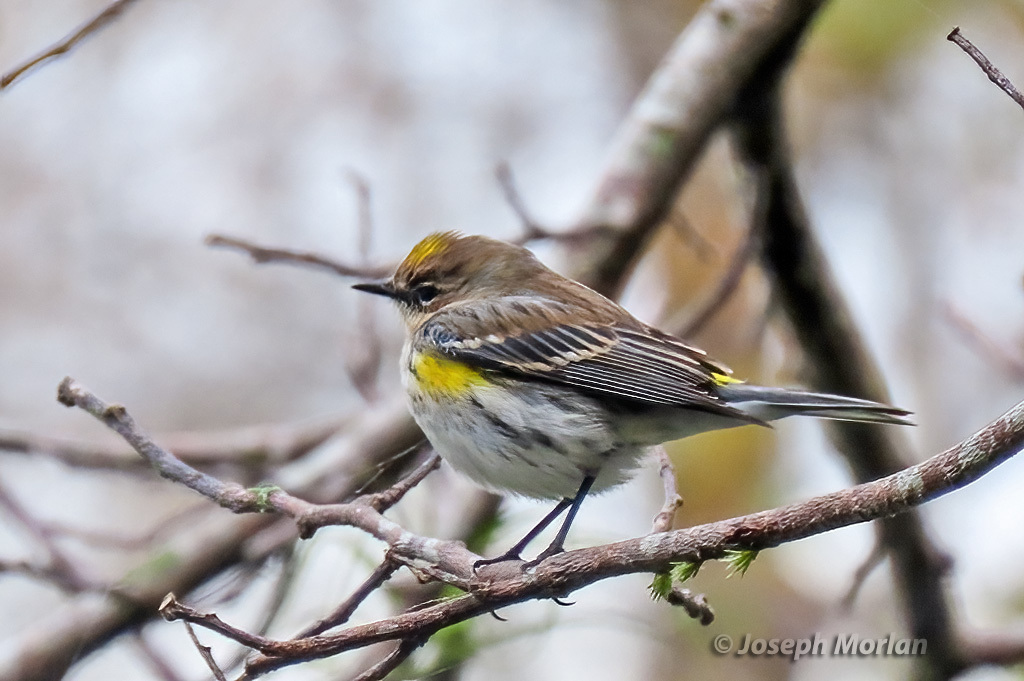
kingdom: Animalia
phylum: Chordata
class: Aves
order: Passeriformes
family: Parulidae
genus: Setophaga
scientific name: Setophaga coronata
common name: Myrtle warbler
